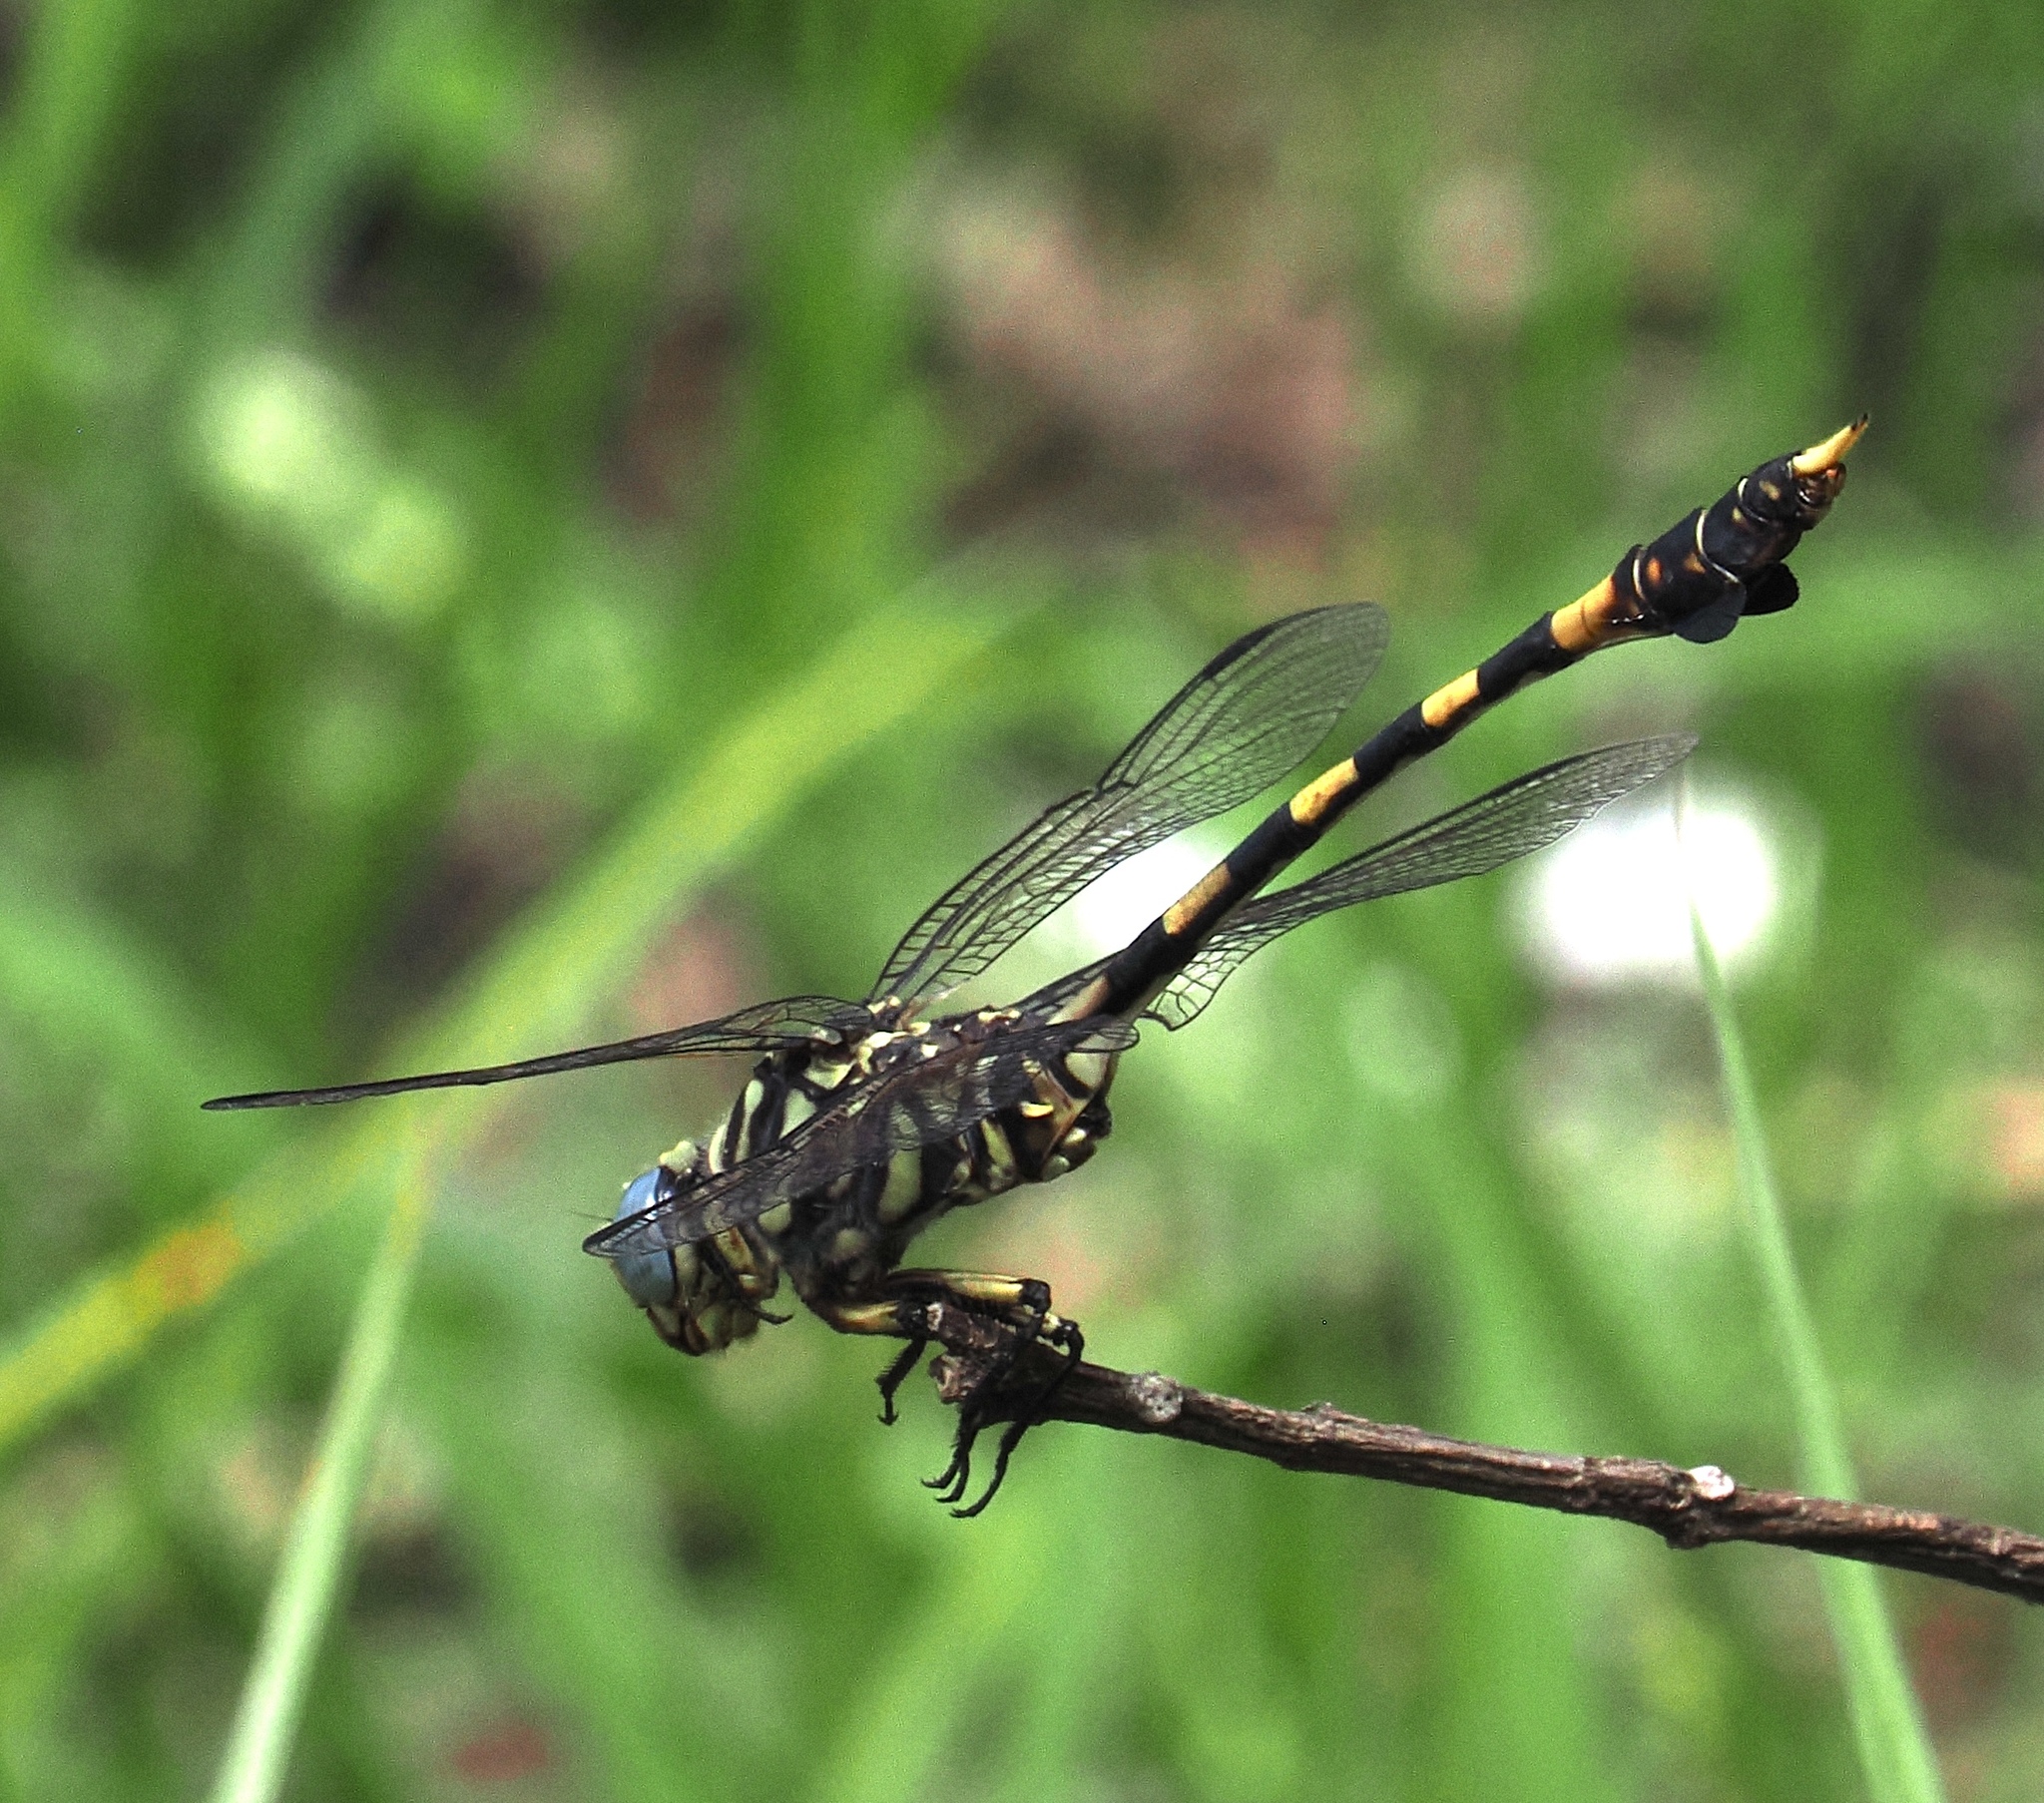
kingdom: Animalia
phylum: Arthropoda
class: Insecta
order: Odonata
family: Gomphidae
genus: Ictinogomphus
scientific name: Ictinogomphus ferox
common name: Common tiger
